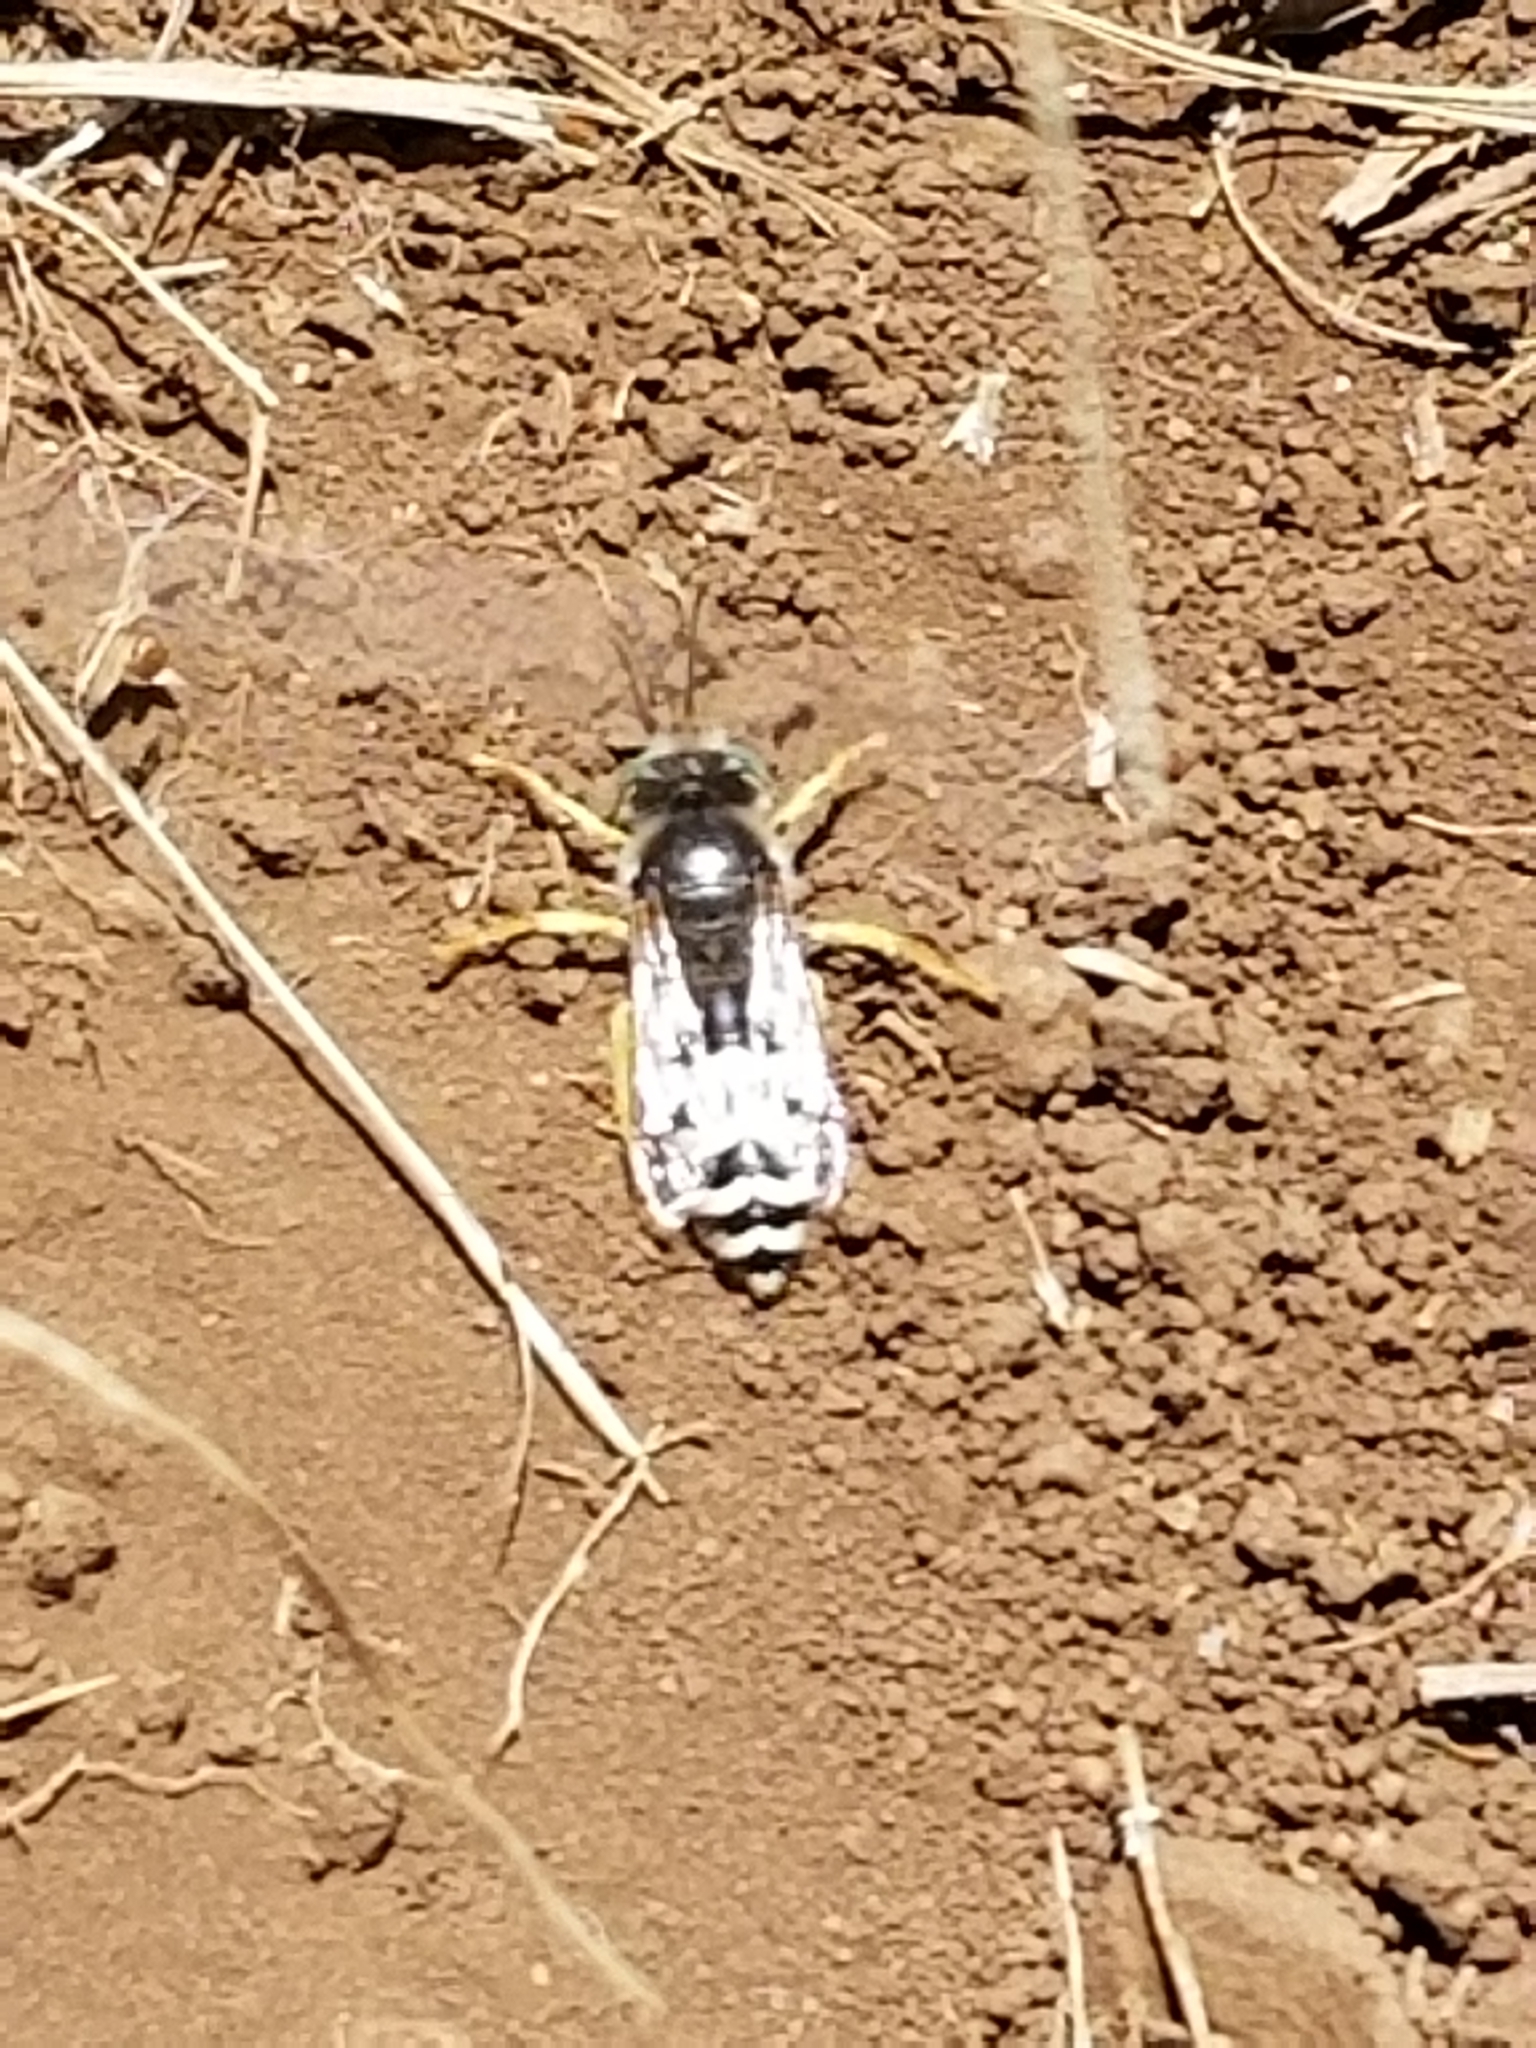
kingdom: Animalia
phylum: Arthropoda
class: Insecta
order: Hymenoptera
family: Crabronidae
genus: Bembix
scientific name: Bembix americana
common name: American sand wasp
